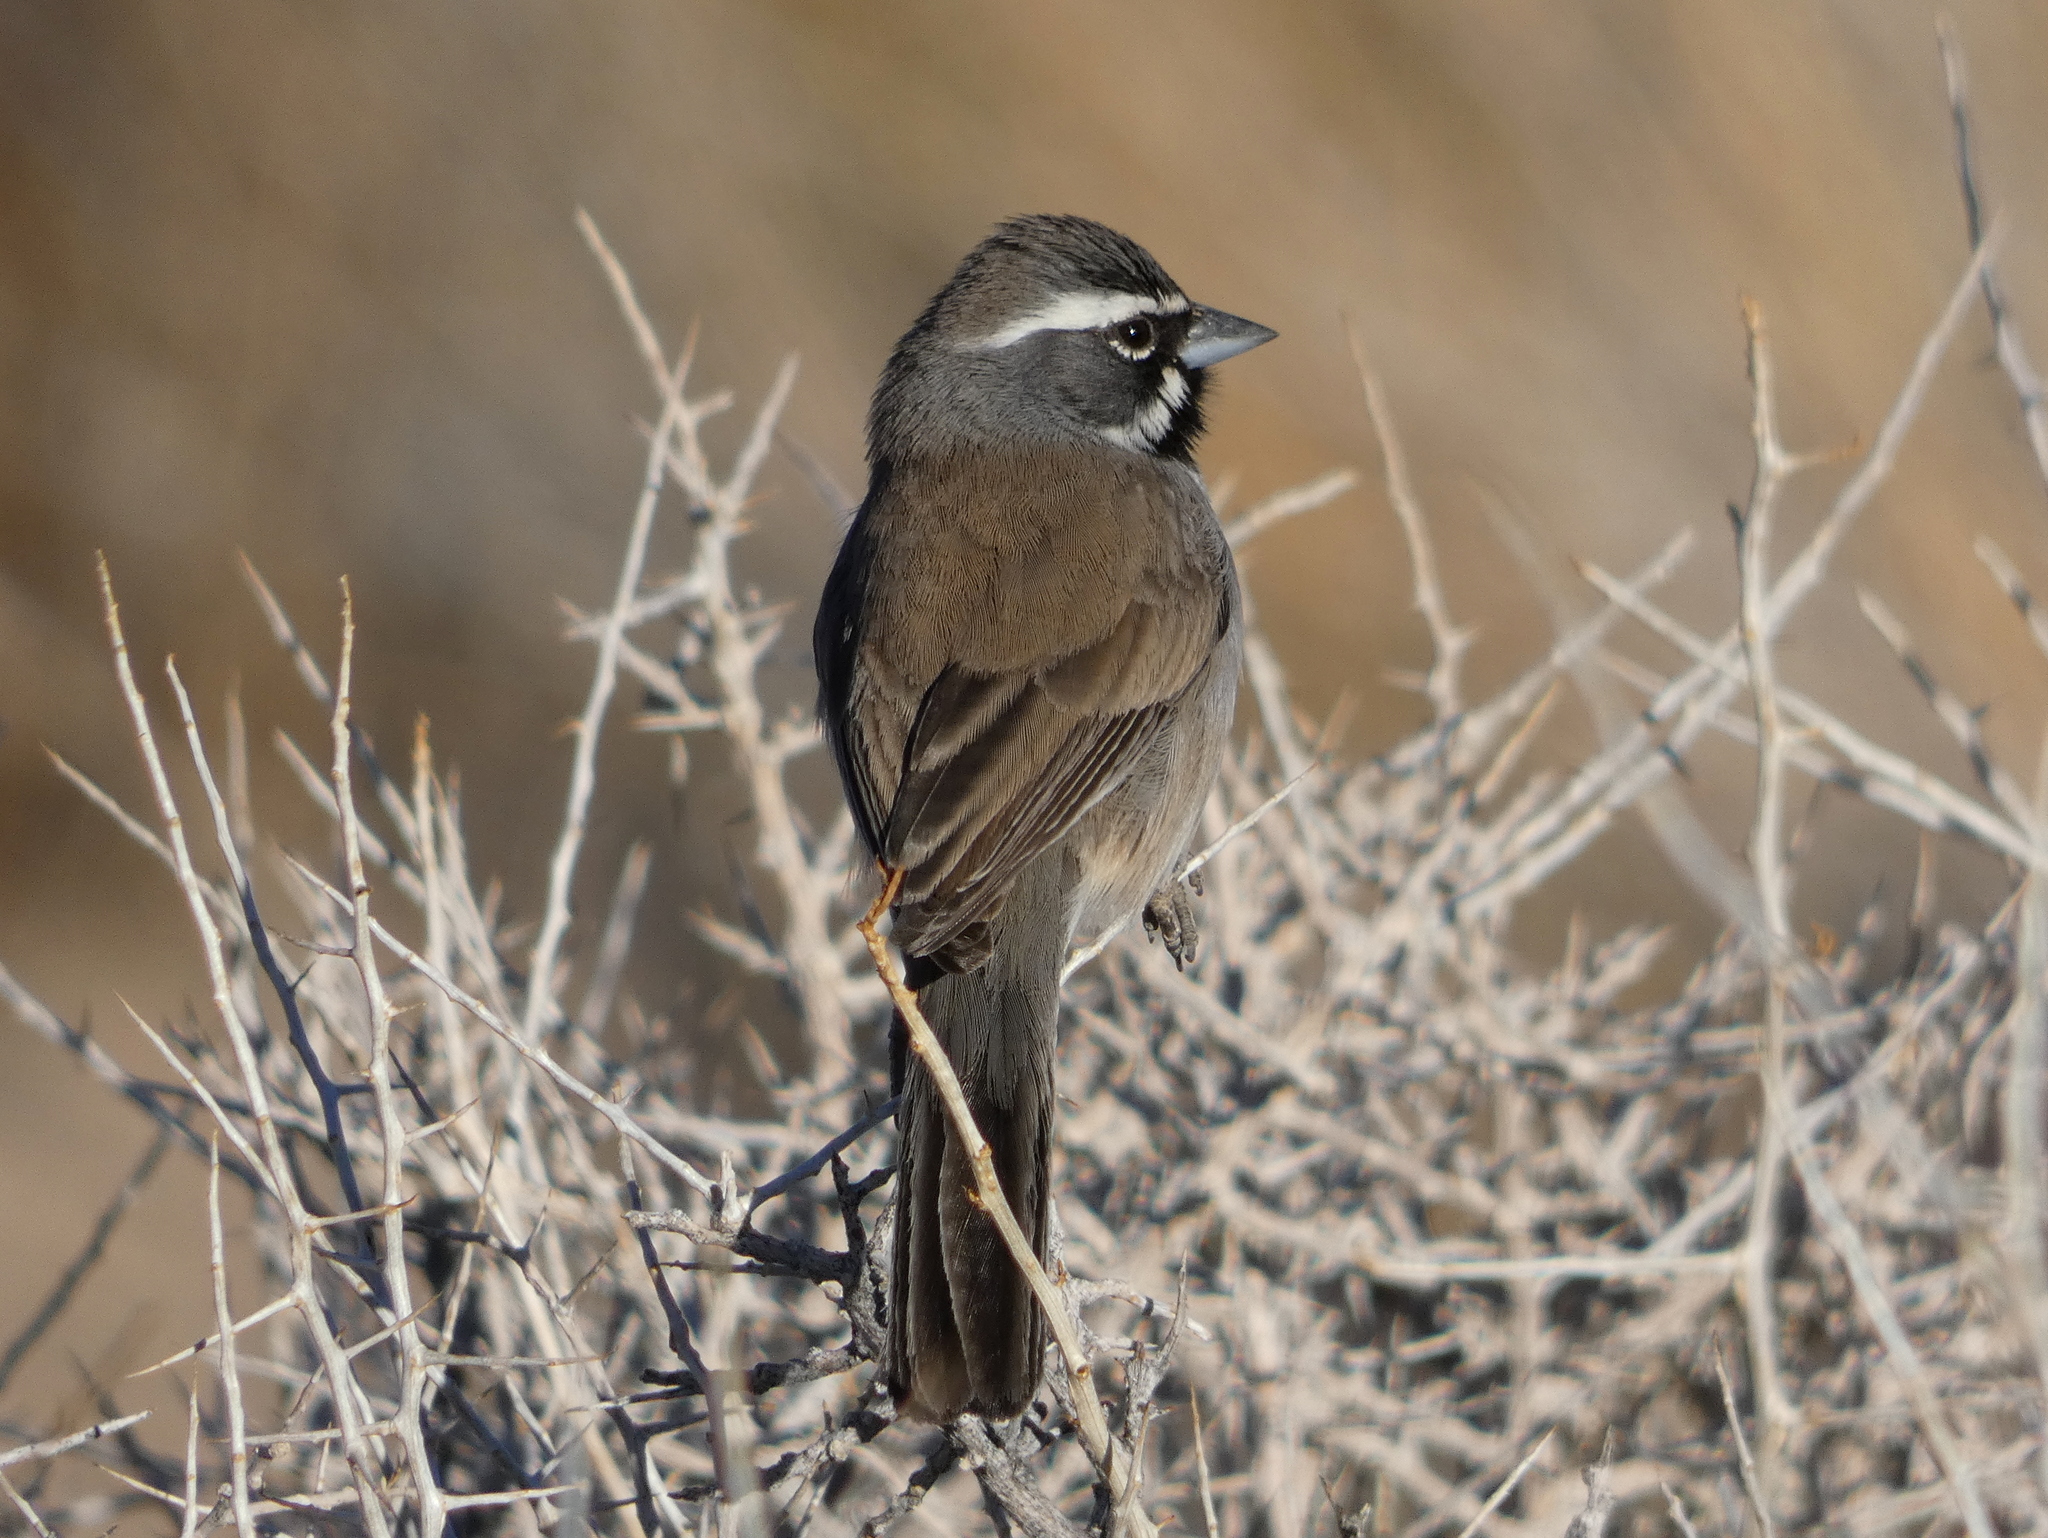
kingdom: Animalia
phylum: Chordata
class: Aves
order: Passeriformes
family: Passerellidae
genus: Amphispiza
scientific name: Amphispiza bilineata
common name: Black-throated sparrow
